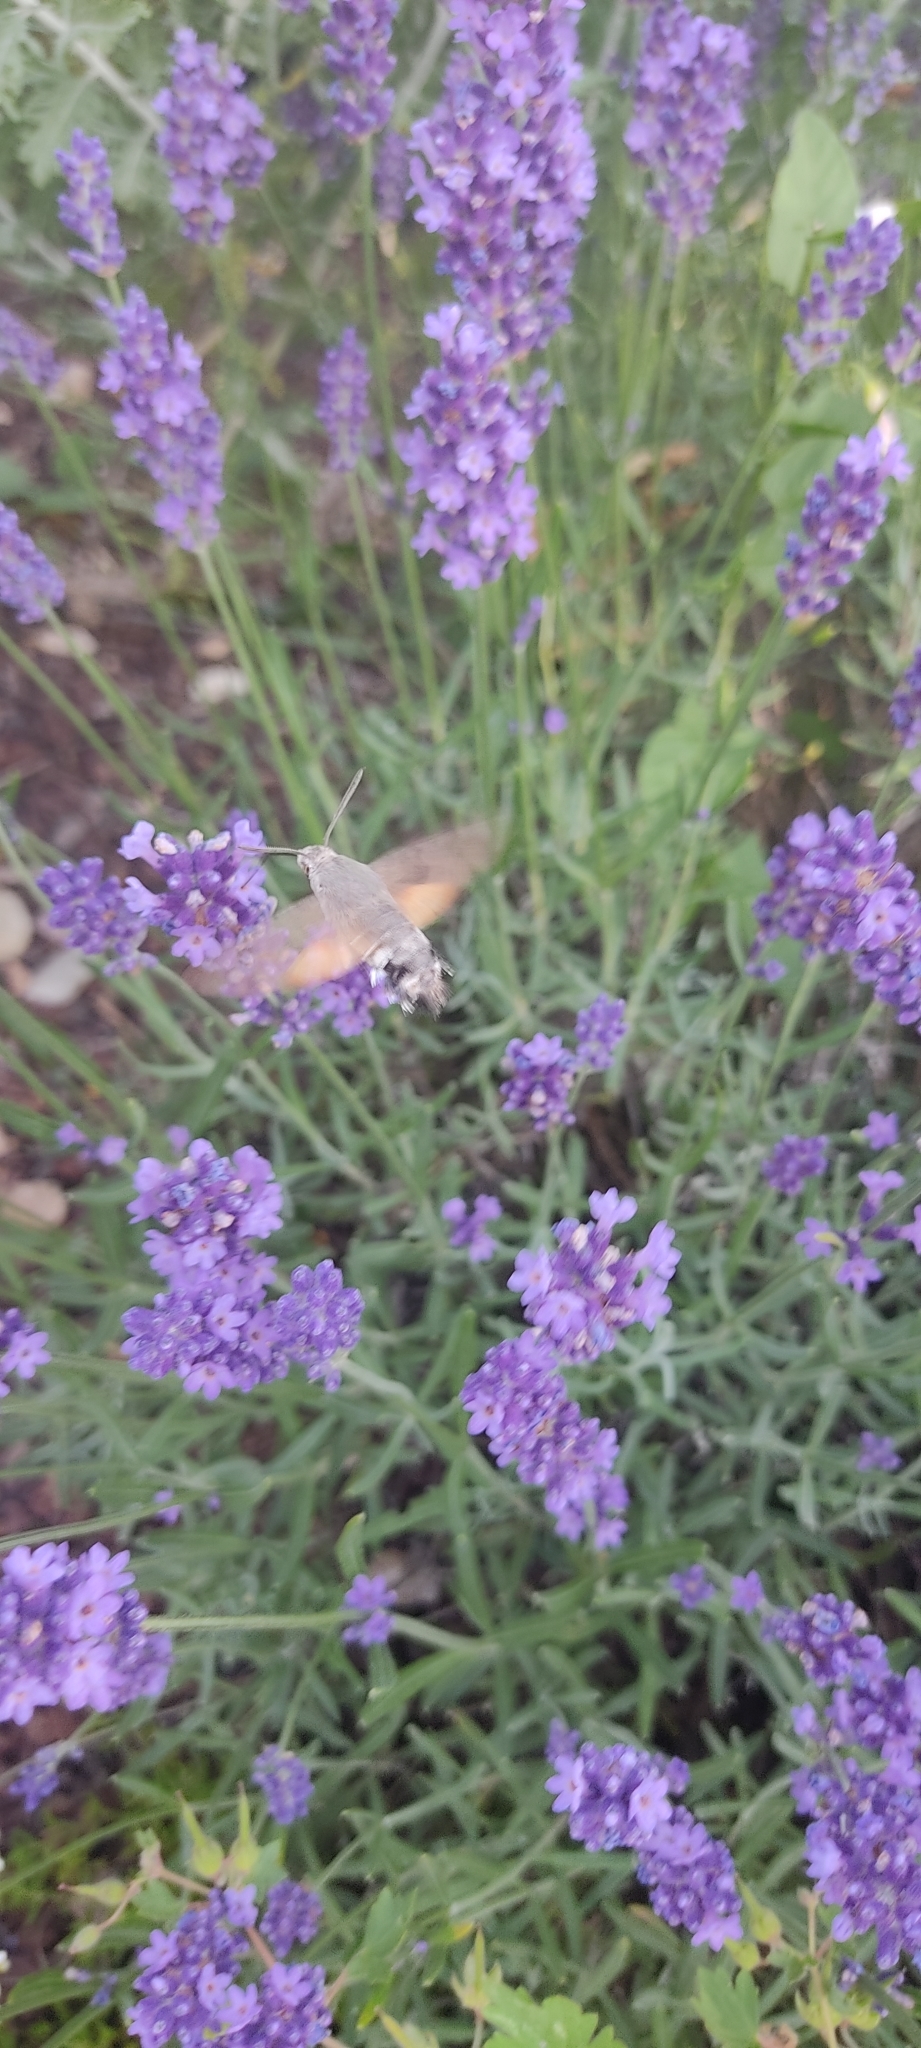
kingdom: Animalia
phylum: Arthropoda
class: Insecta
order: Lepidoptera
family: Sphingidae
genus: Macroglossum
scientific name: Macroglossum stellatarum
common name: Humming-bird hawk-moth
